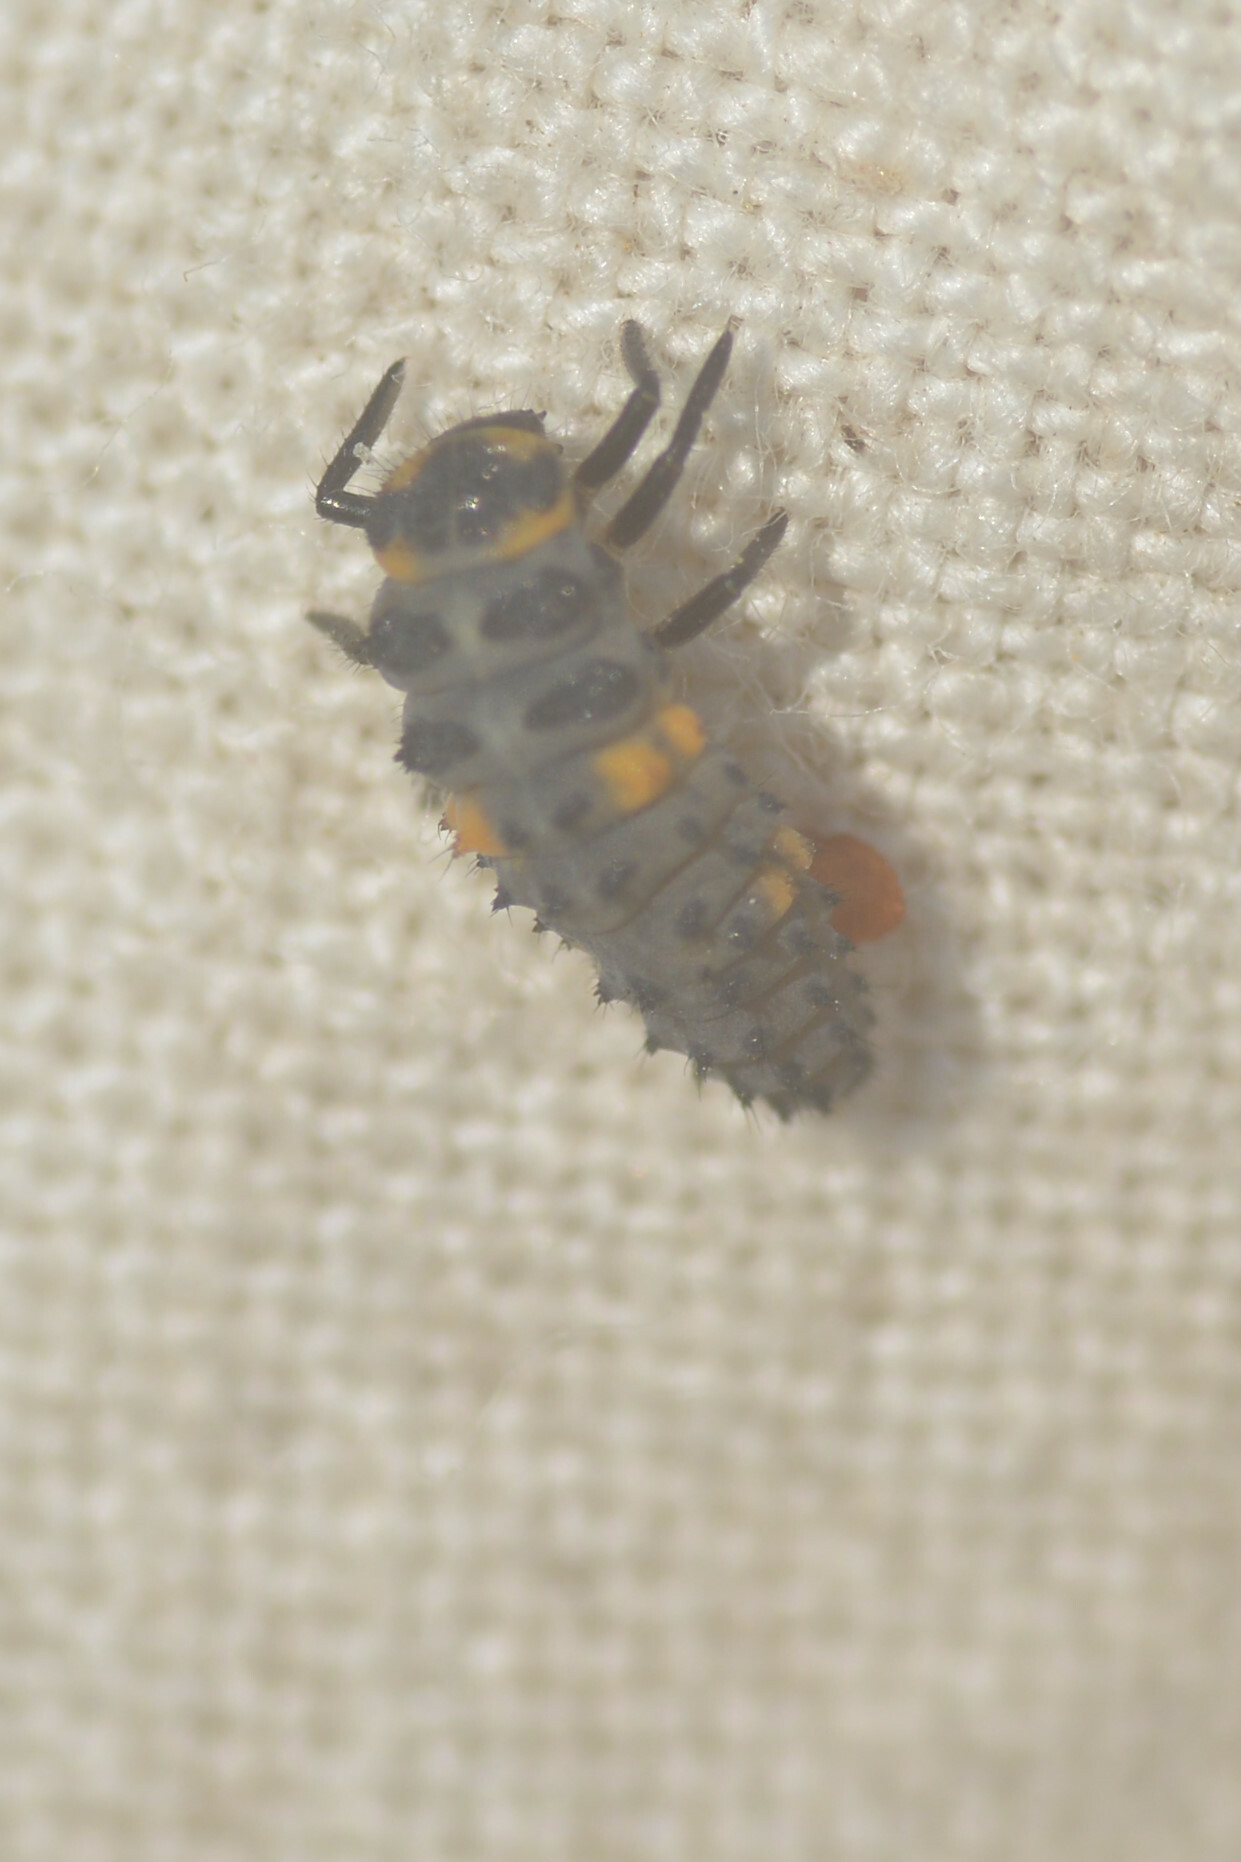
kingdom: Animalia
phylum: Arthropoda
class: Insecta
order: Coleoptera
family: Coccinellidae
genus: Coccinella
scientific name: Coccinella septempunctata
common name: Sevenspotted lady beetle
